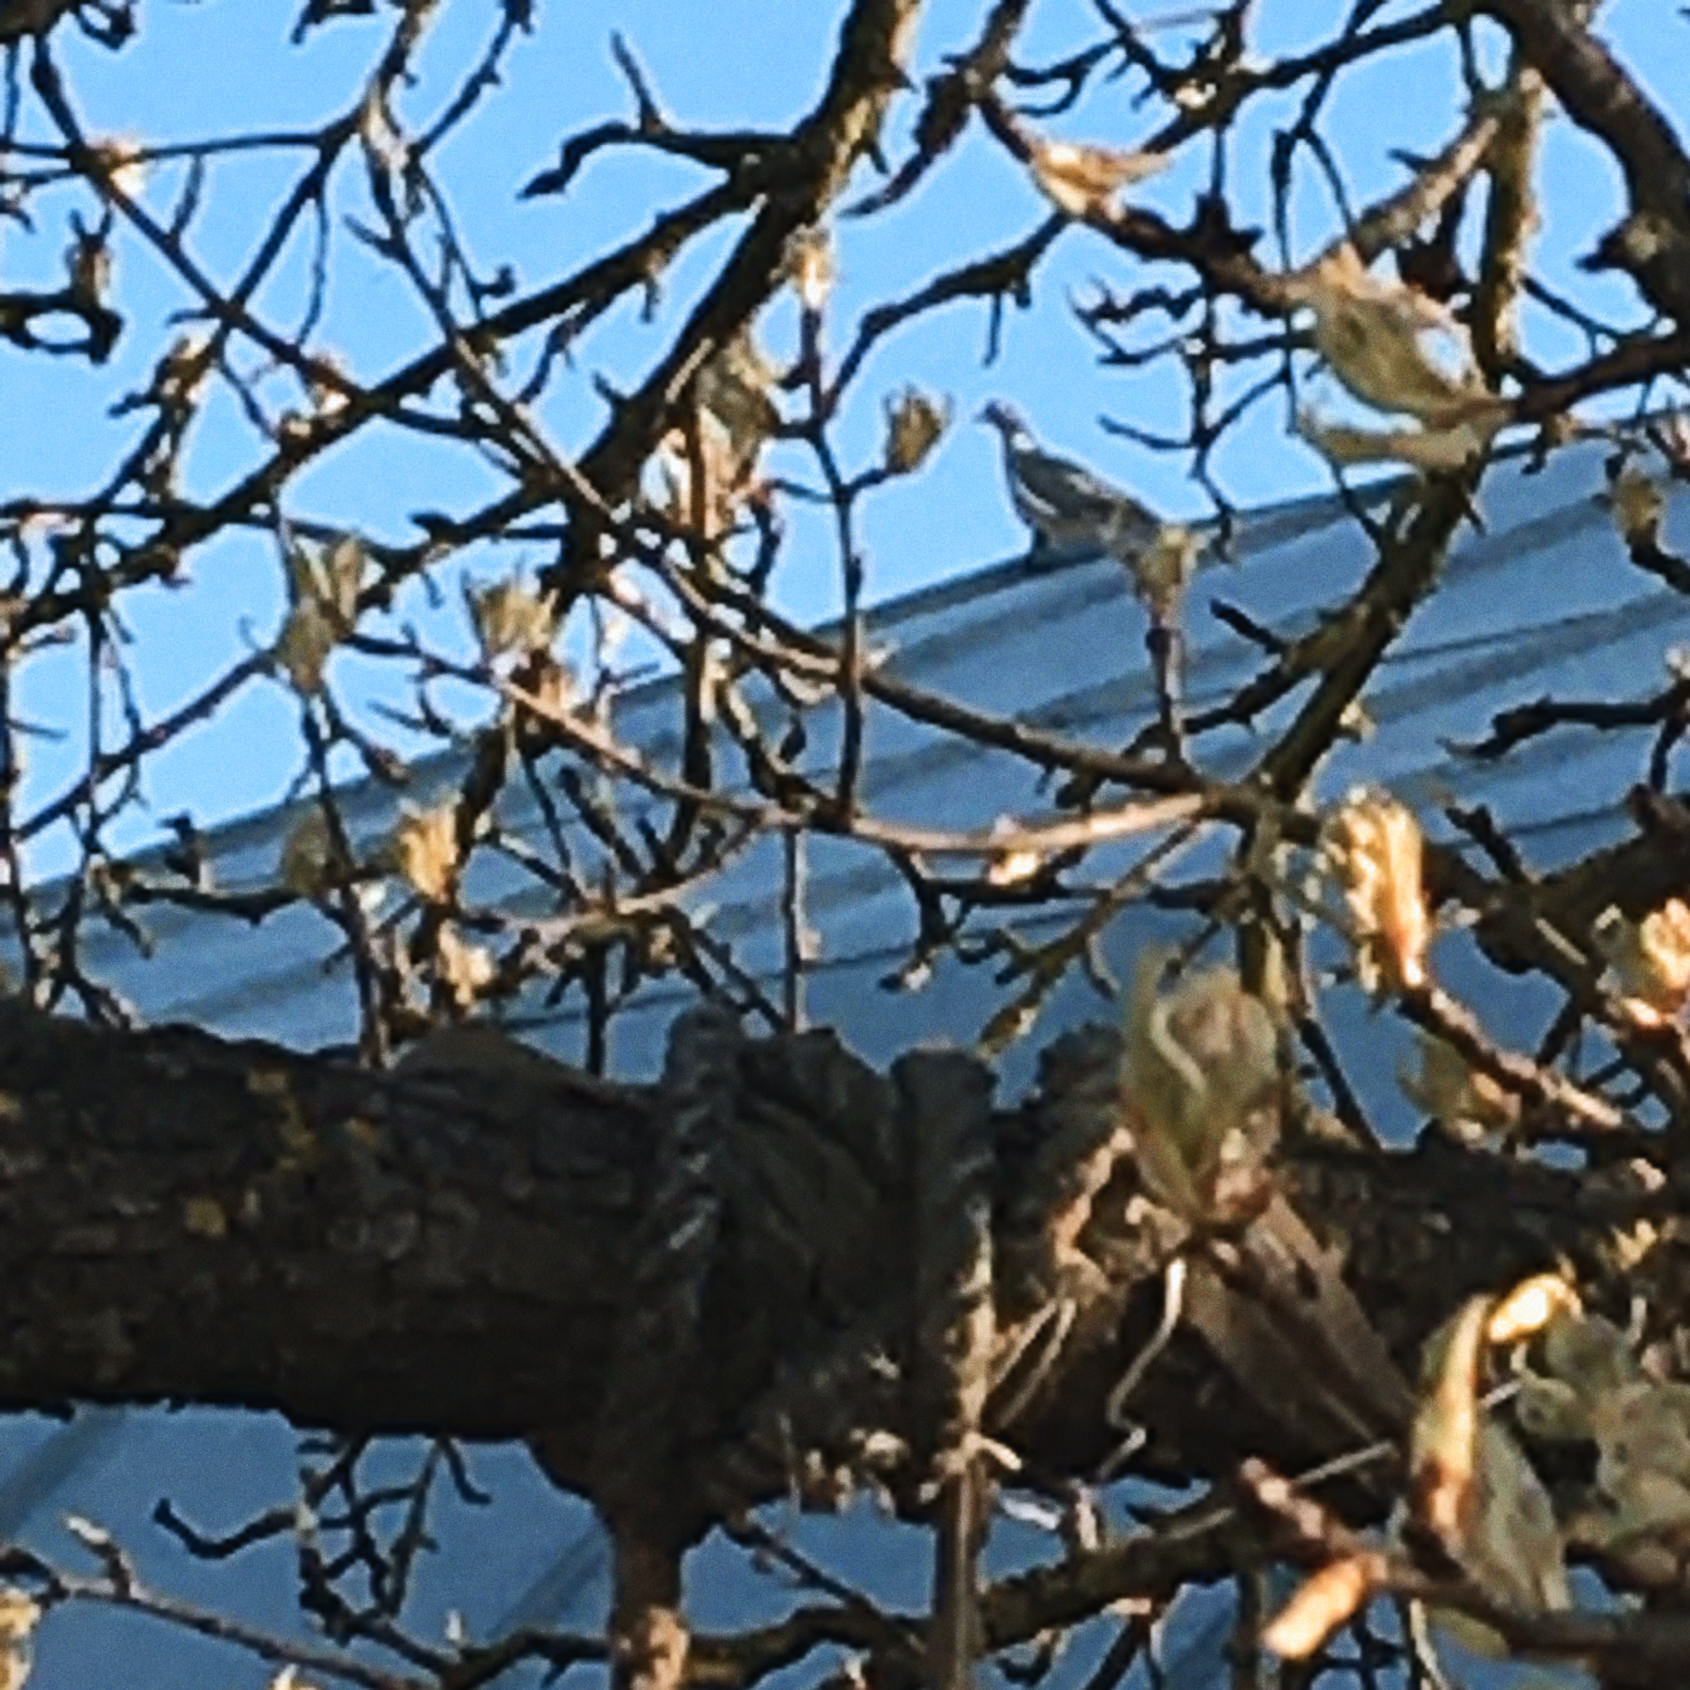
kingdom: Animalia
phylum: Chordata
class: Aves
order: Columbiformes
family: Columbidae
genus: Columba
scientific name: Columba palumbus
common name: Common wood pigeon
